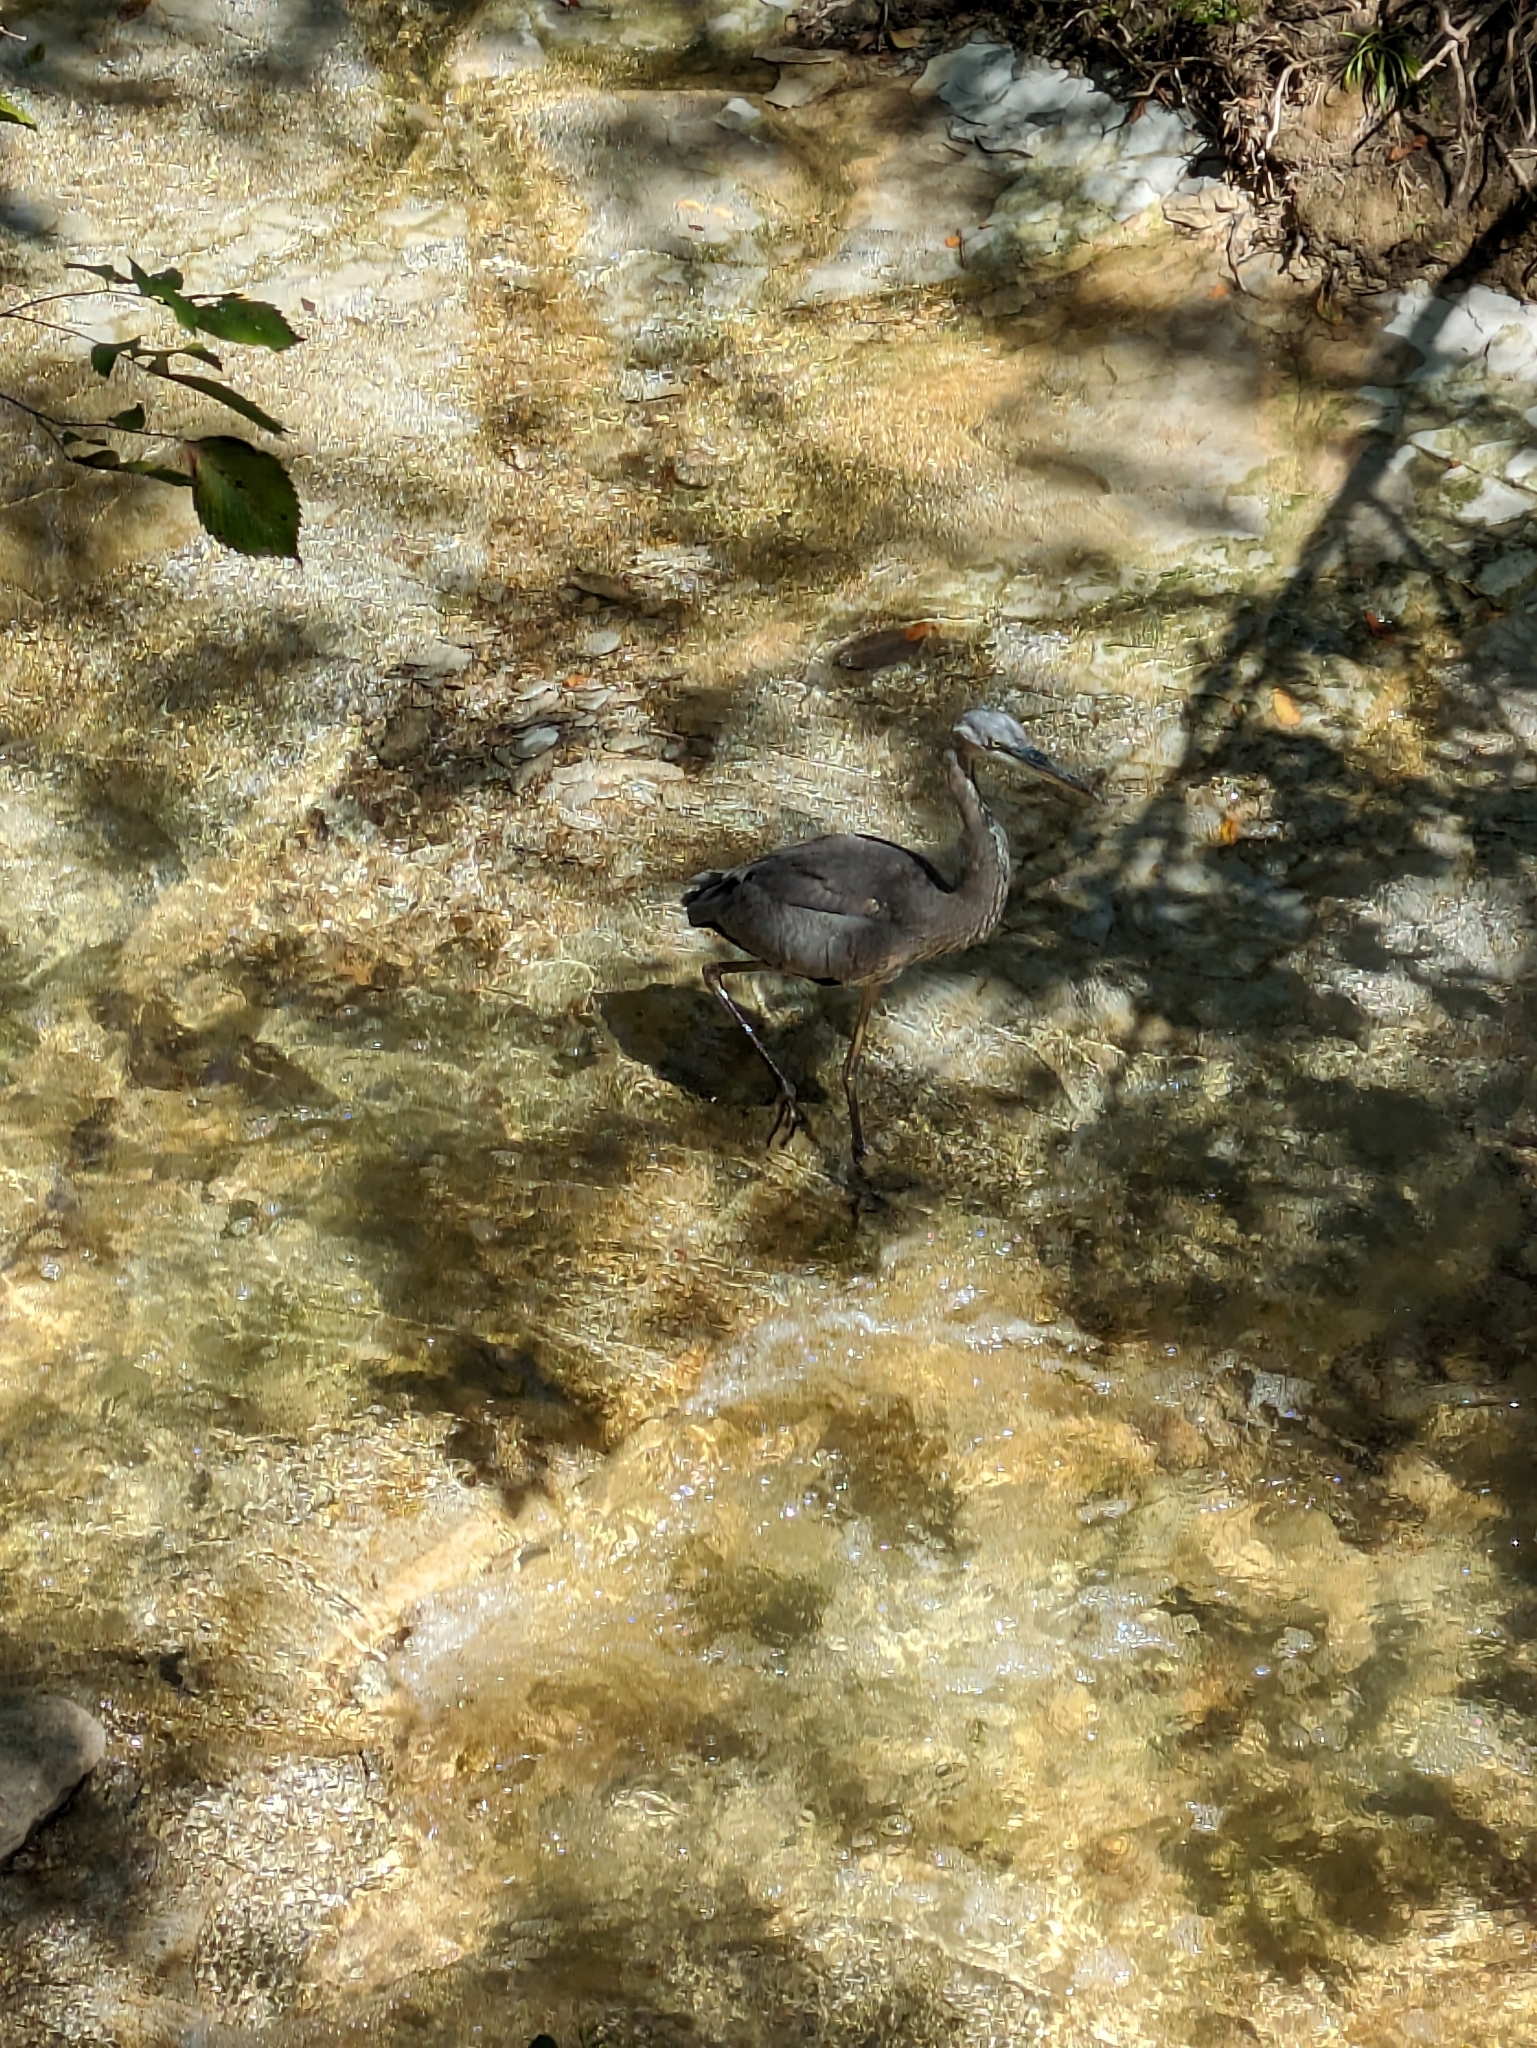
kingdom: Animalia
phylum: Chordata
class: Aves
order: Pelecaniformes
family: Ardeidae
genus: Ardea
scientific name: Ardea herodias
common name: Great blue heron
